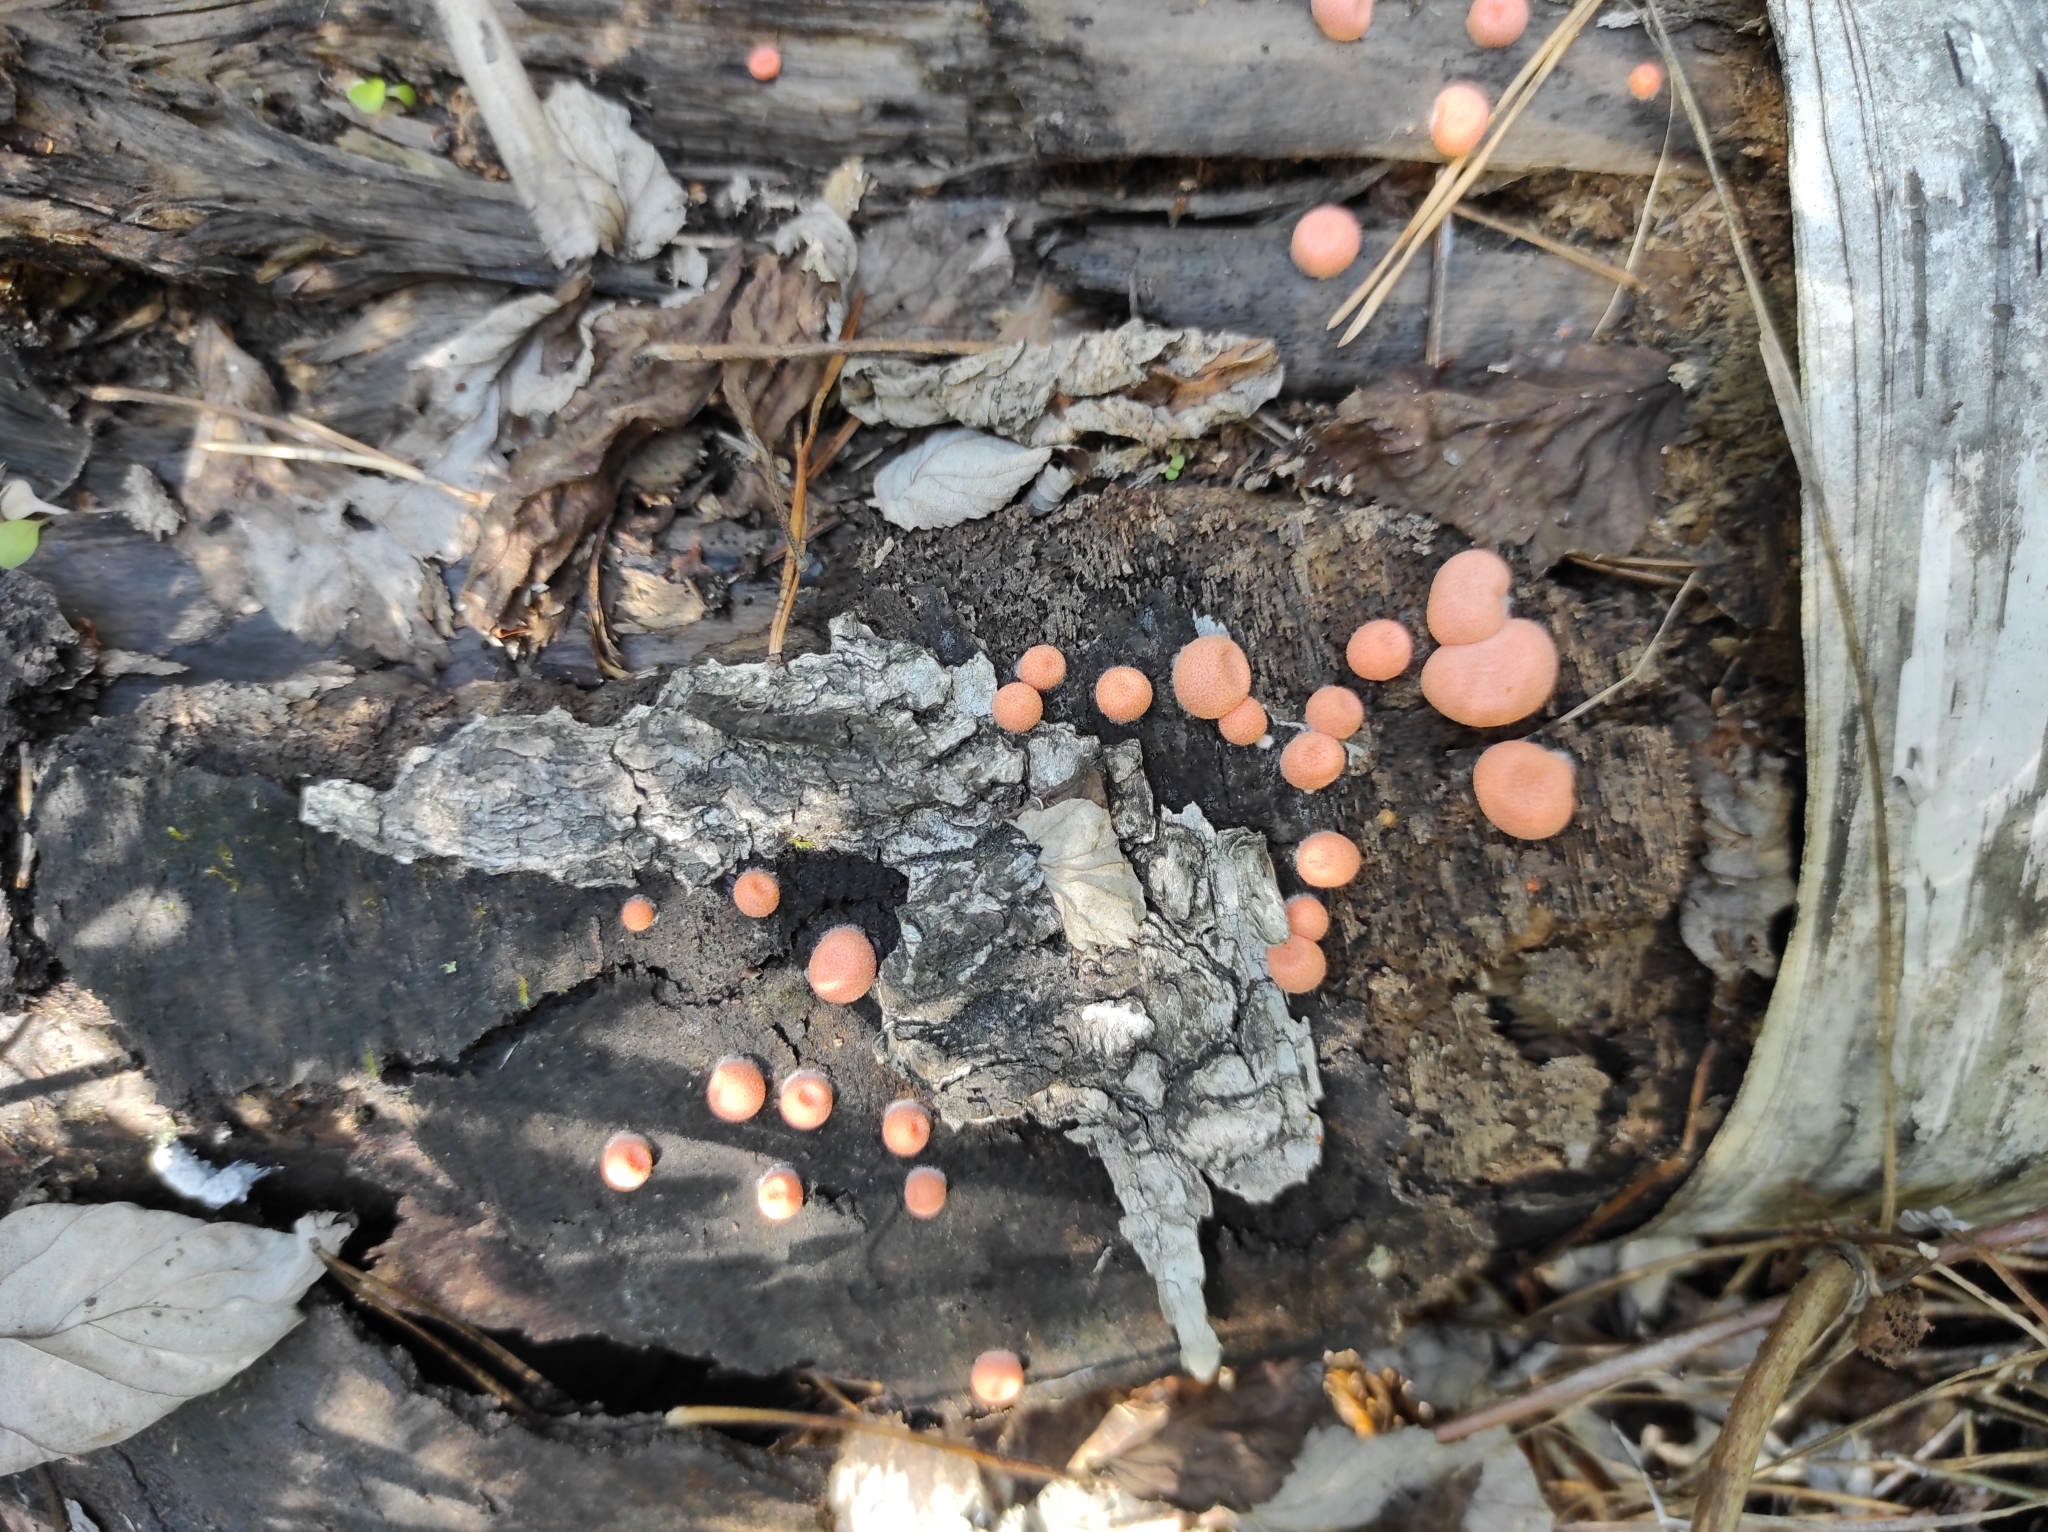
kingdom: Protozoa
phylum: Mycetozoa
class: Myxomycetes
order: Cribrariales
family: Tubiferaceae
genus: Lycogala
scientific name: Lycogala epidendrum
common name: Wolf's milk
